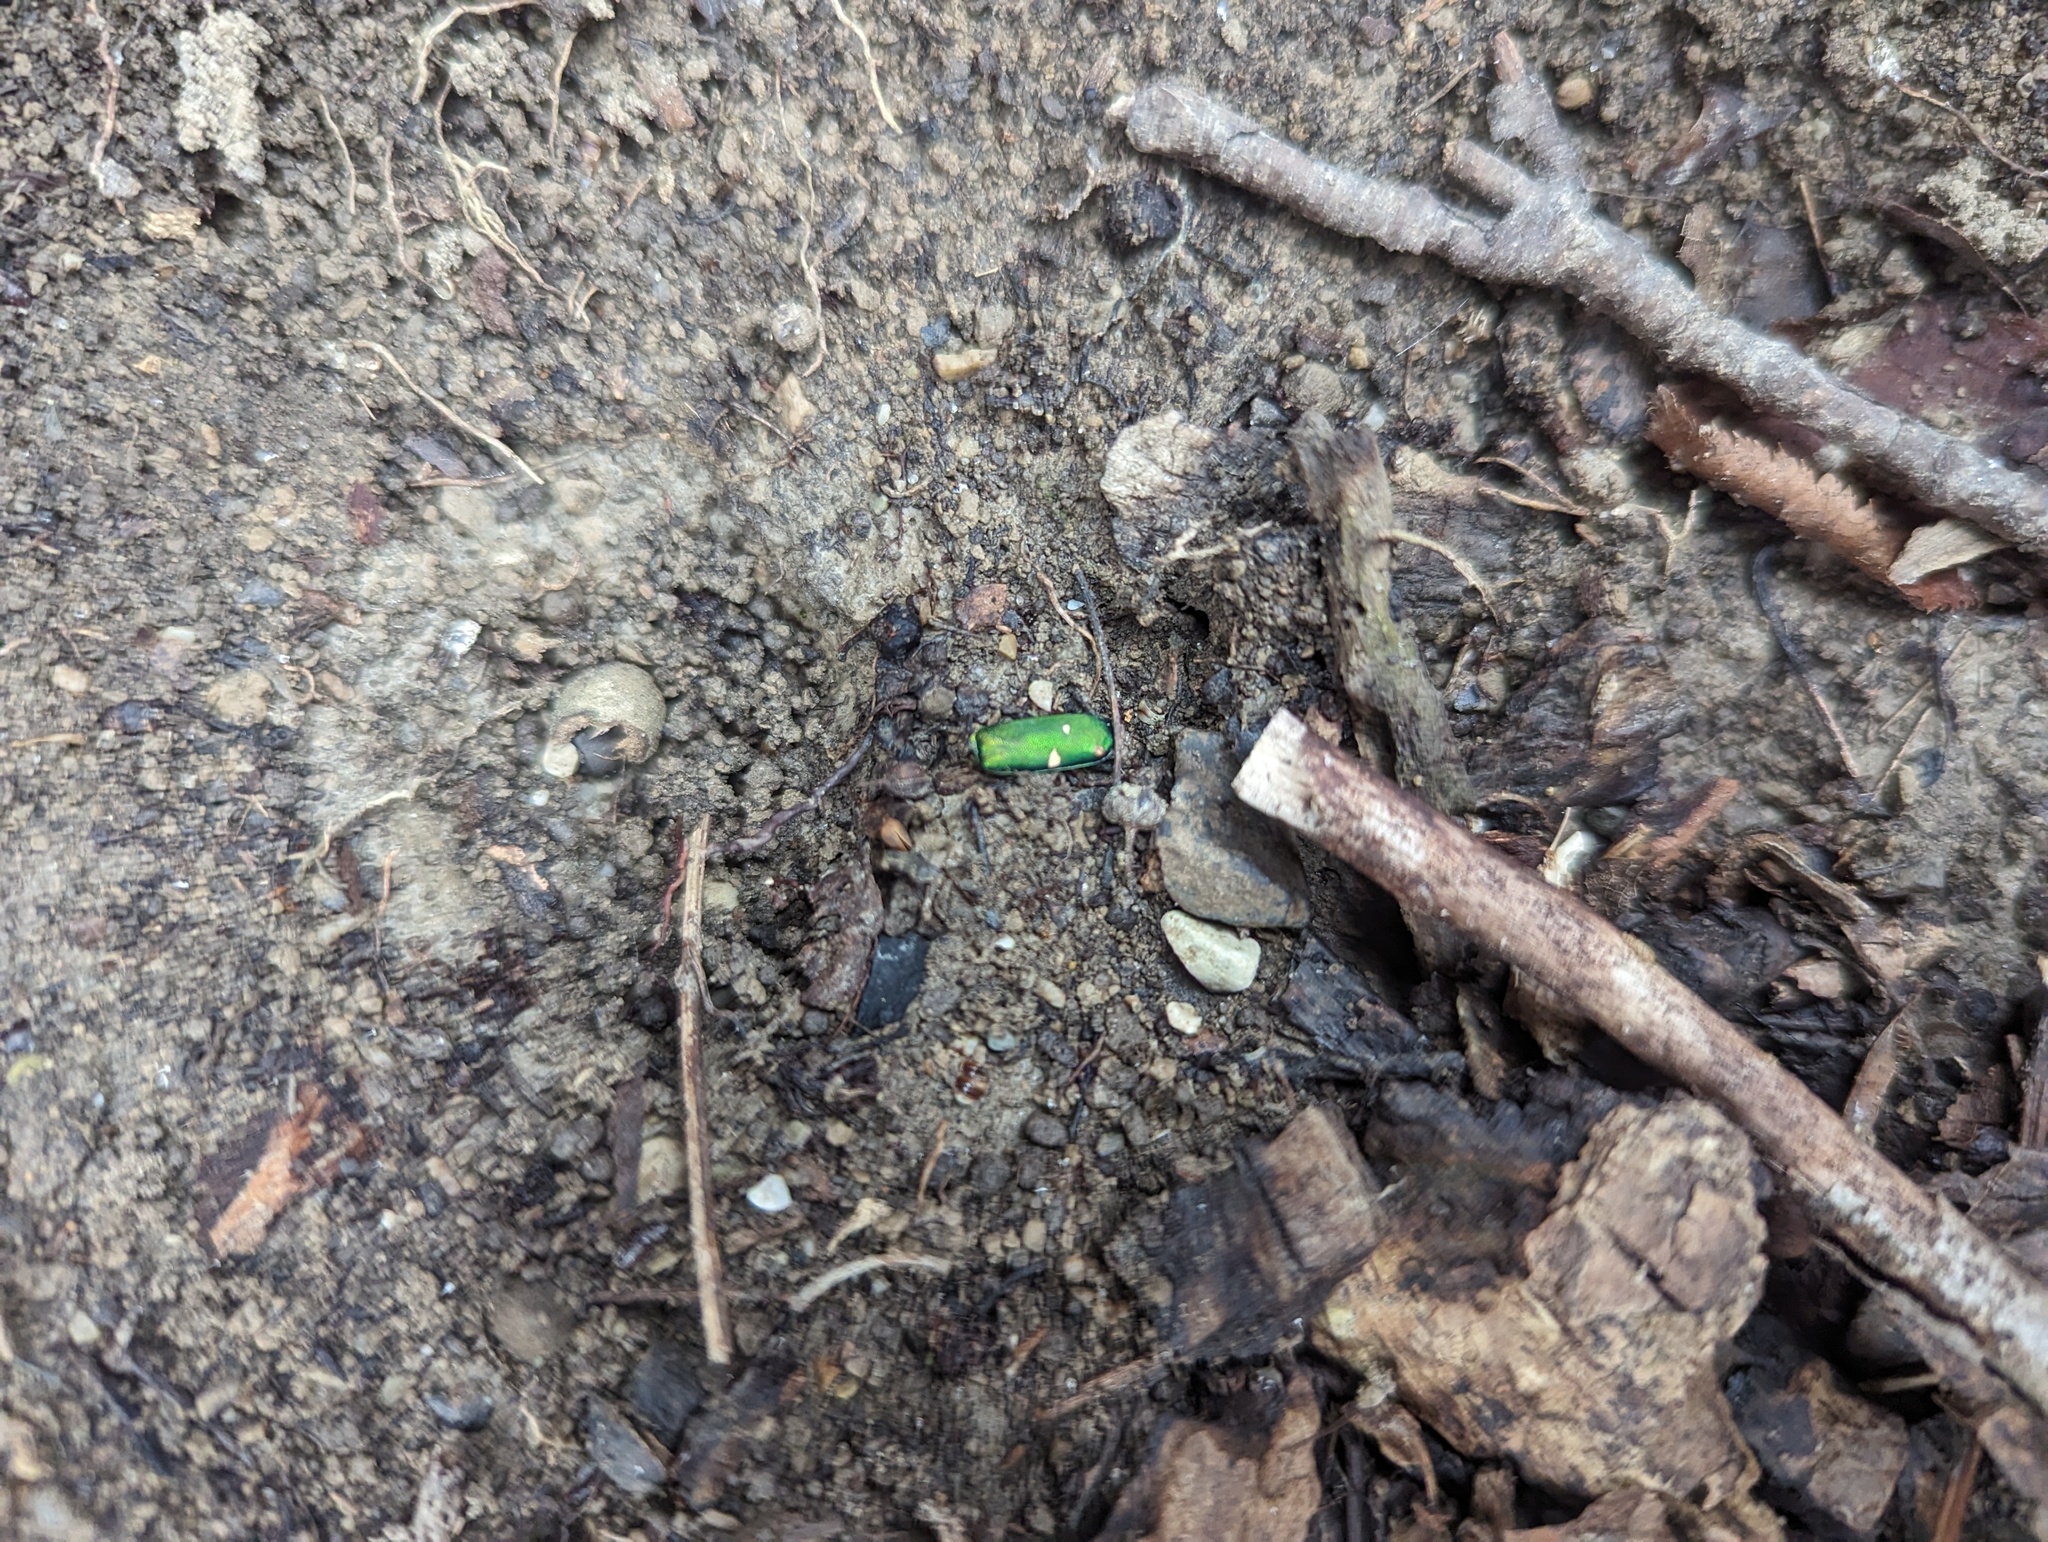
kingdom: Animalia
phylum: Arthropoda
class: Insecta
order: Coleoptera
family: Carabidae
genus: Cicindela
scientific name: Cicindela sexguttata
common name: Six-spotted tiger beetle
